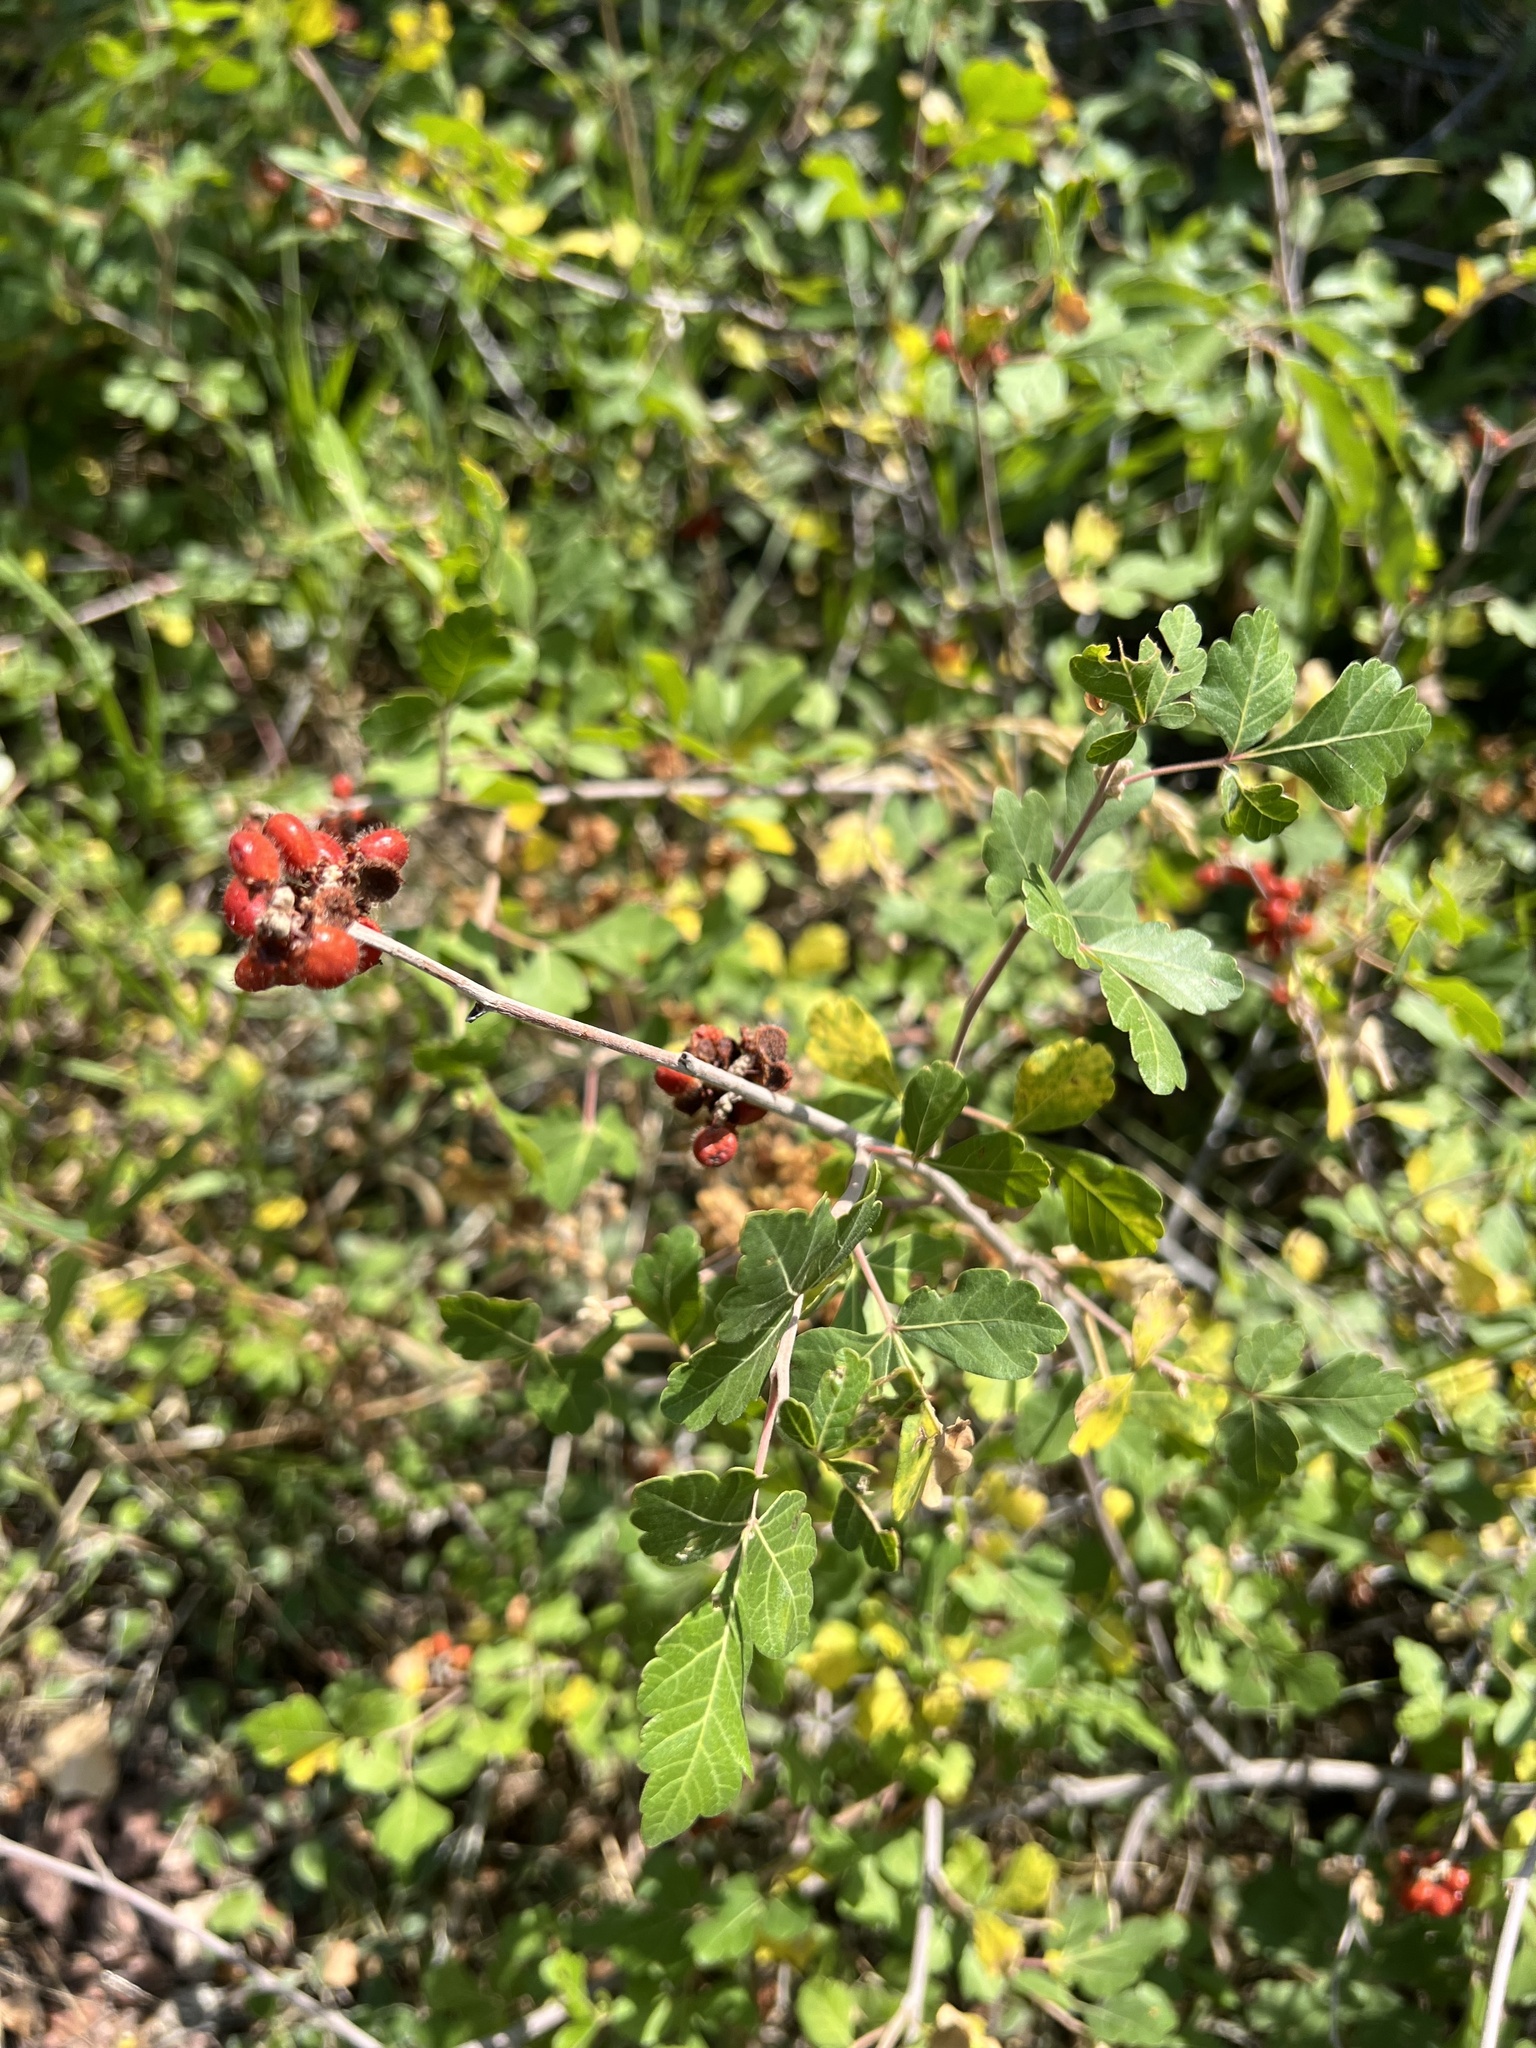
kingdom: Plantae
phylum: Tracheophyta
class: Magnoliopsida
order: Sapindales
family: Anacardiaceae
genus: Rhus
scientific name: Rhus trilobata
